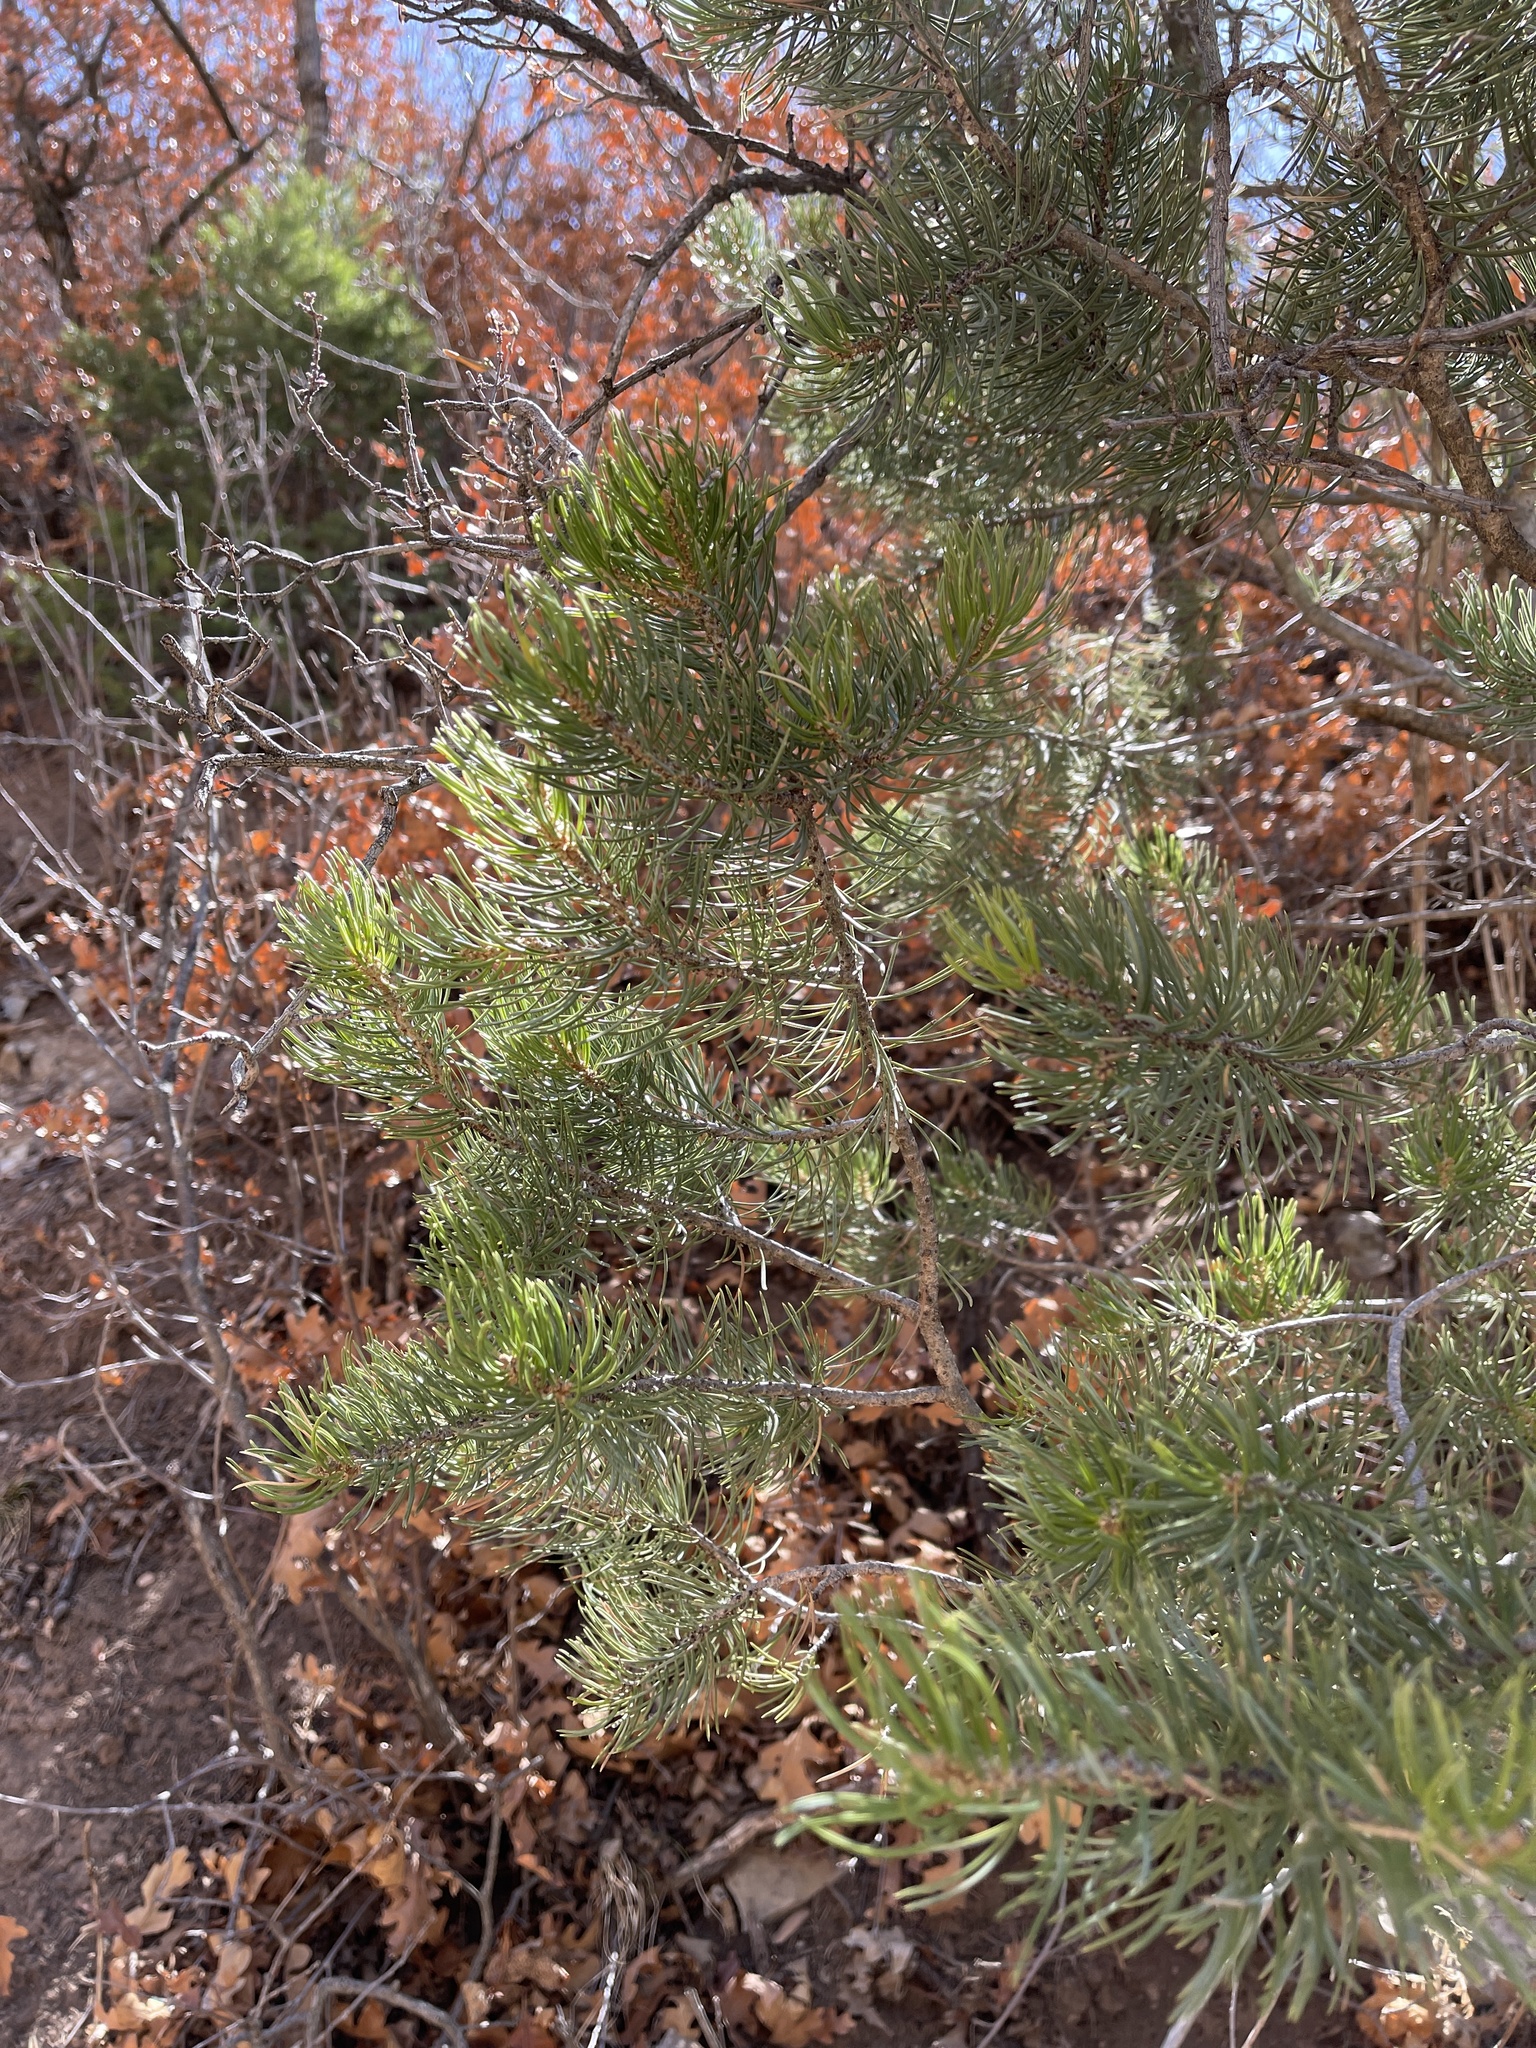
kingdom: Plantae
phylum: Tracheophyta
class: Pinopsida
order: Pinales
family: Pinaceae
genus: Pinus
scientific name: Pinus edulis
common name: Colorado pinyon
